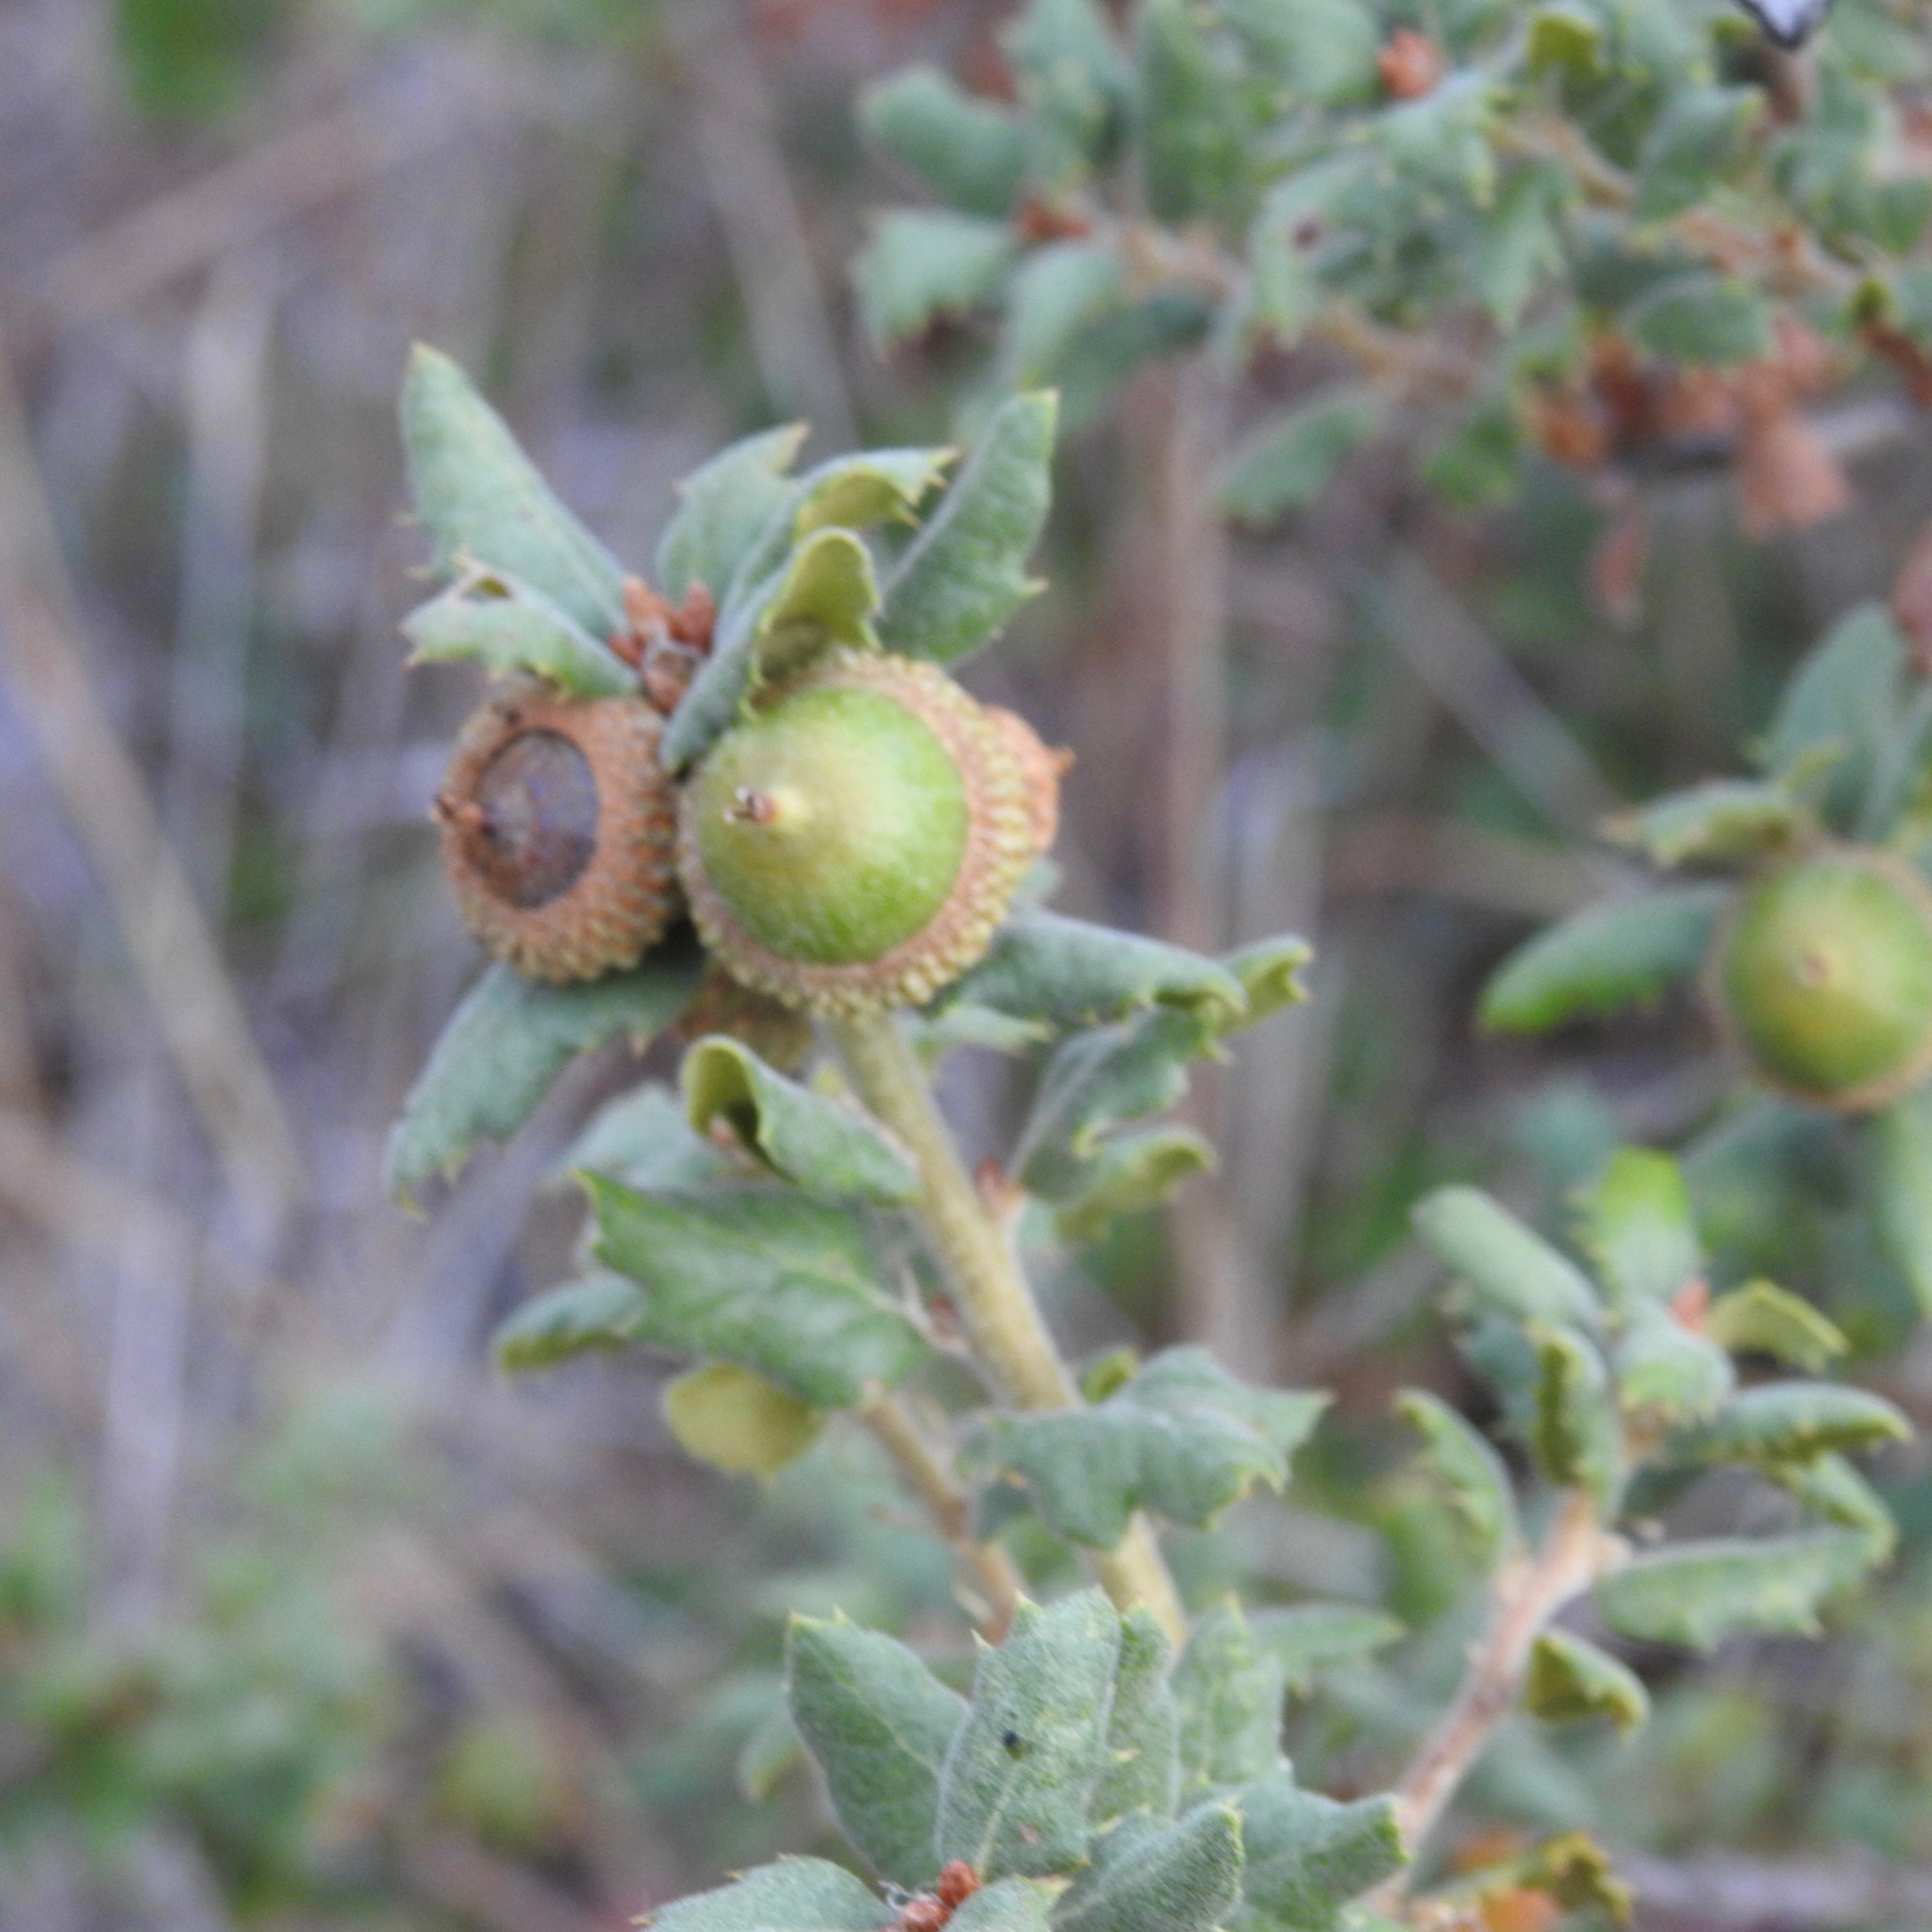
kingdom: Plantae
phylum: Tracheophyta
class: Magnoliopsida
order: Fagales
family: Fagaceae
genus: Quercus
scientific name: Quercus berberidifolia
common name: California scrub oak
